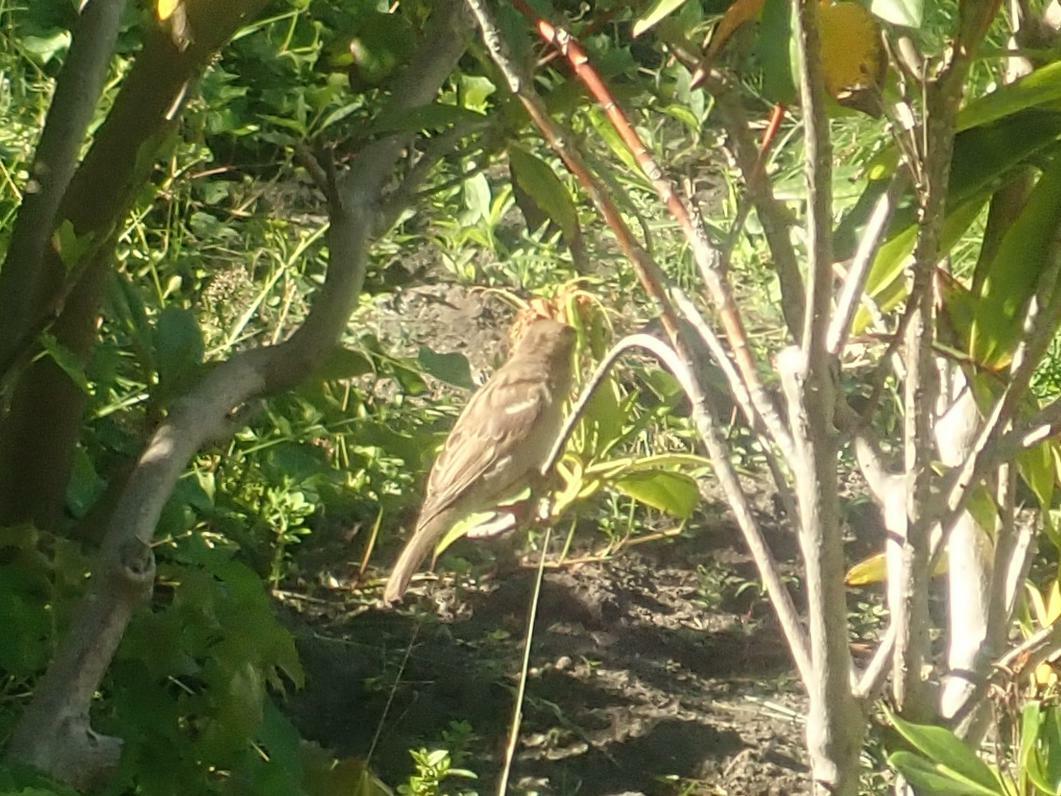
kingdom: Animalia
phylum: Chordata
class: Aves
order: Passeriformes
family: Passeridae
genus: Passer
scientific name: Passer domesticus
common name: House sparrow
